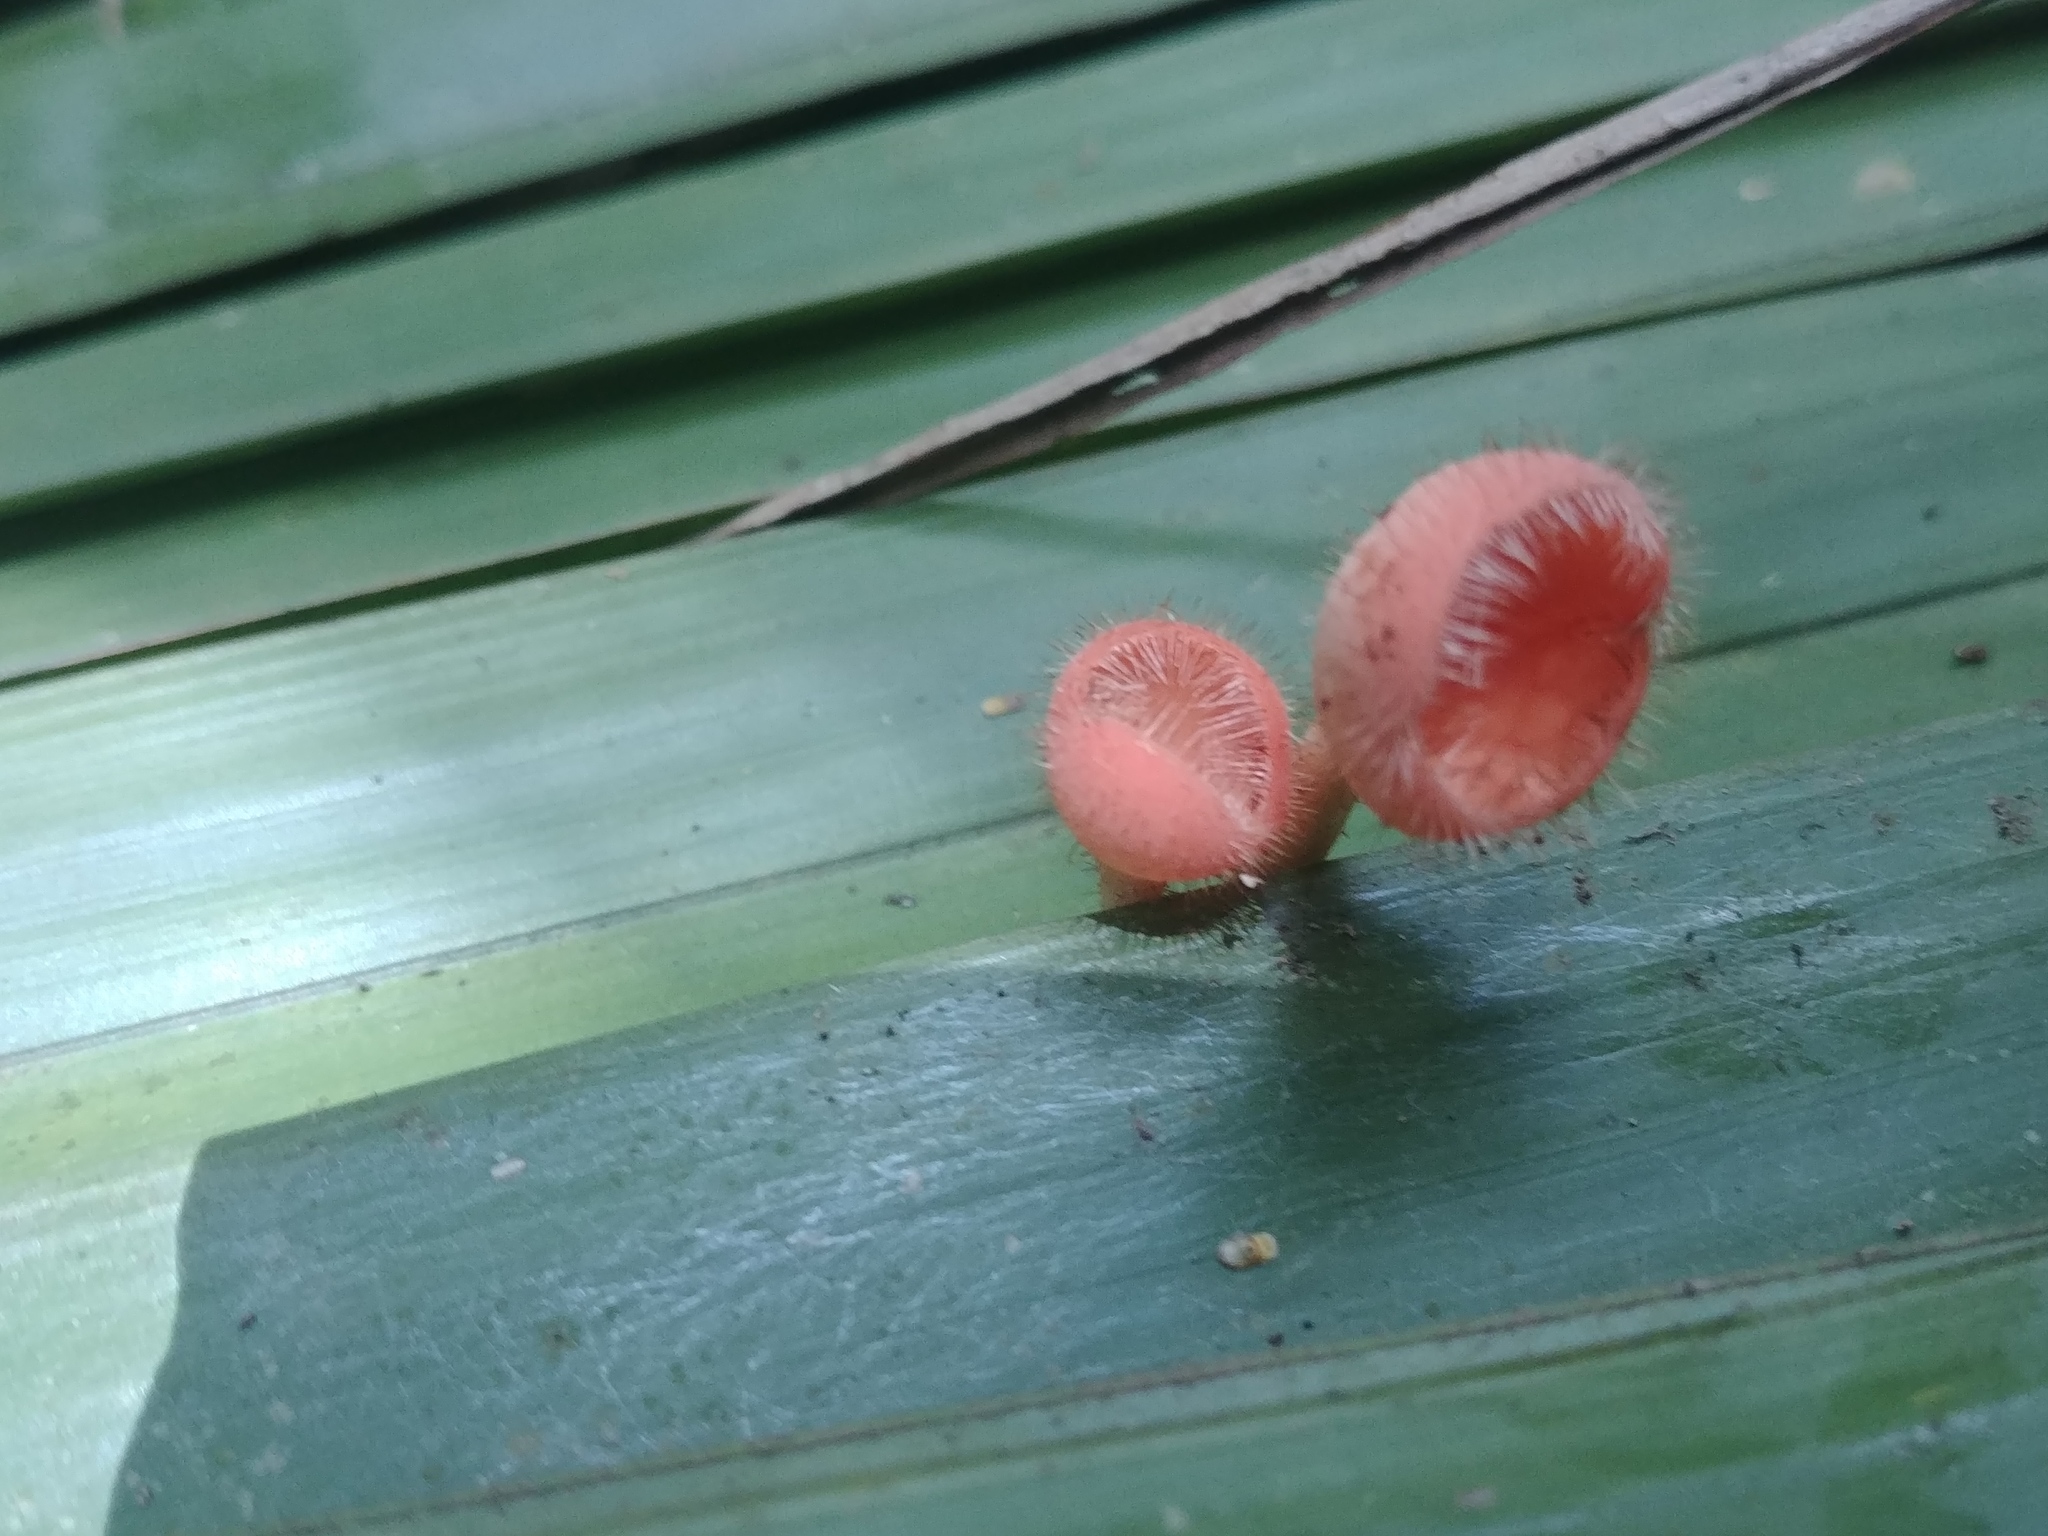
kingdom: Fungi
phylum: Ascomycota
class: Pezizomycetes
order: Pezizales
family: Sarcoscyphaceae
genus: Cookeina
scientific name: Cookeina tricholoma
